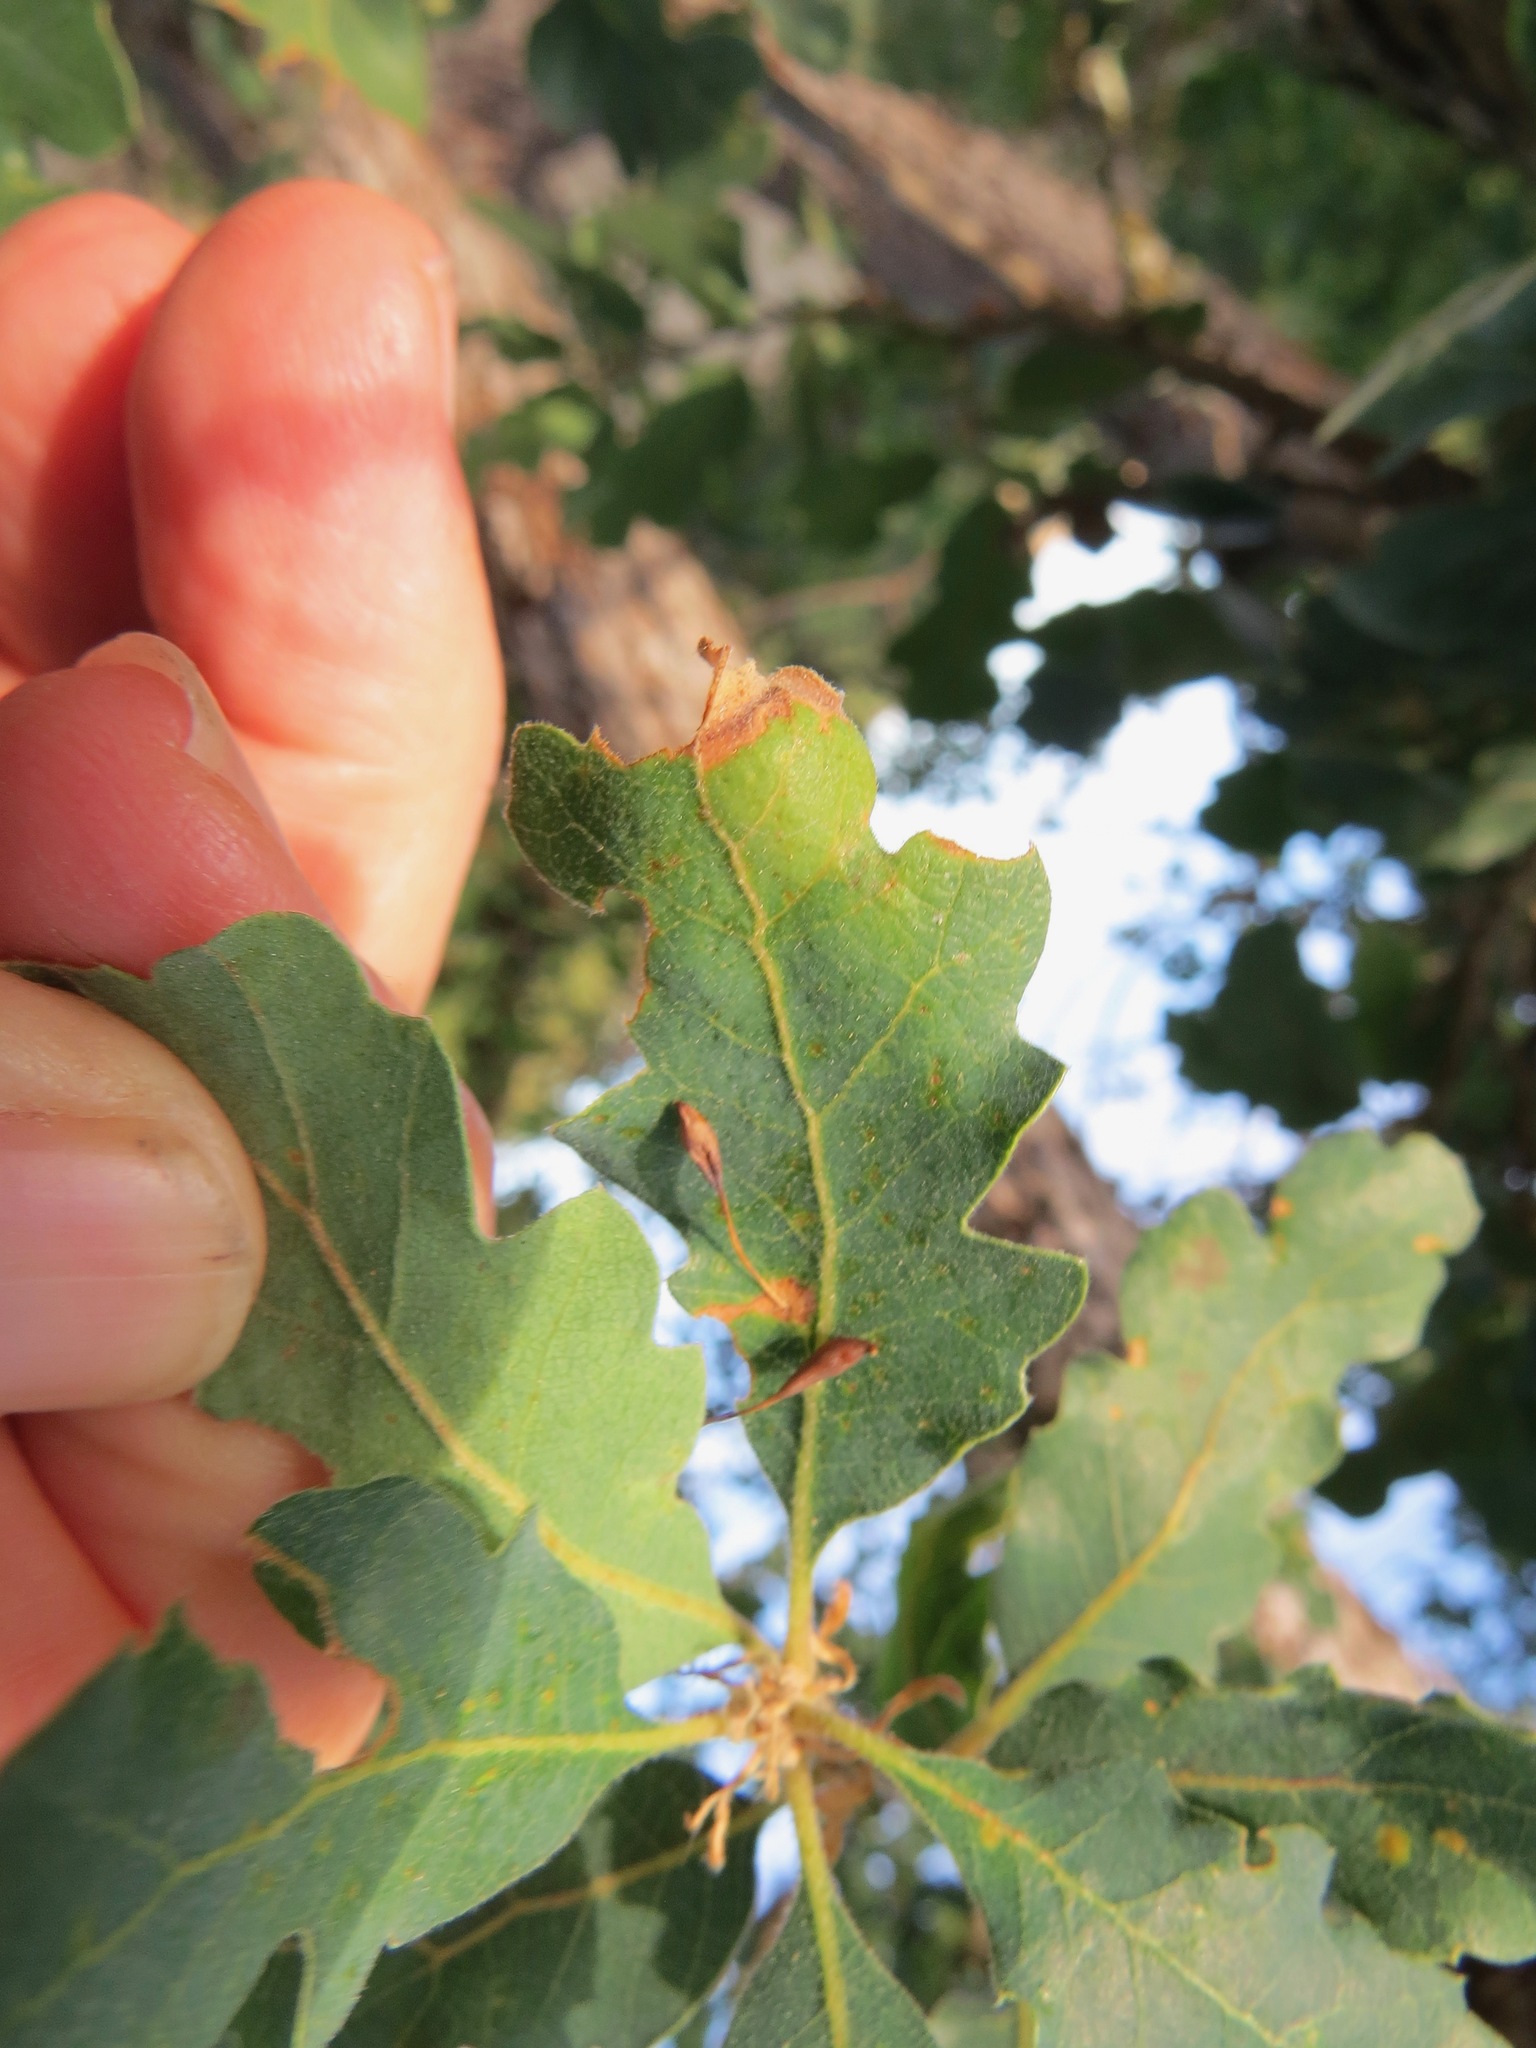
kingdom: Plantae
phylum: Tracheophyta
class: Magnoliopsida
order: Fagales
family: Fagaceae
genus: Quercus
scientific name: Quercus douglasii
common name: Blue oak
